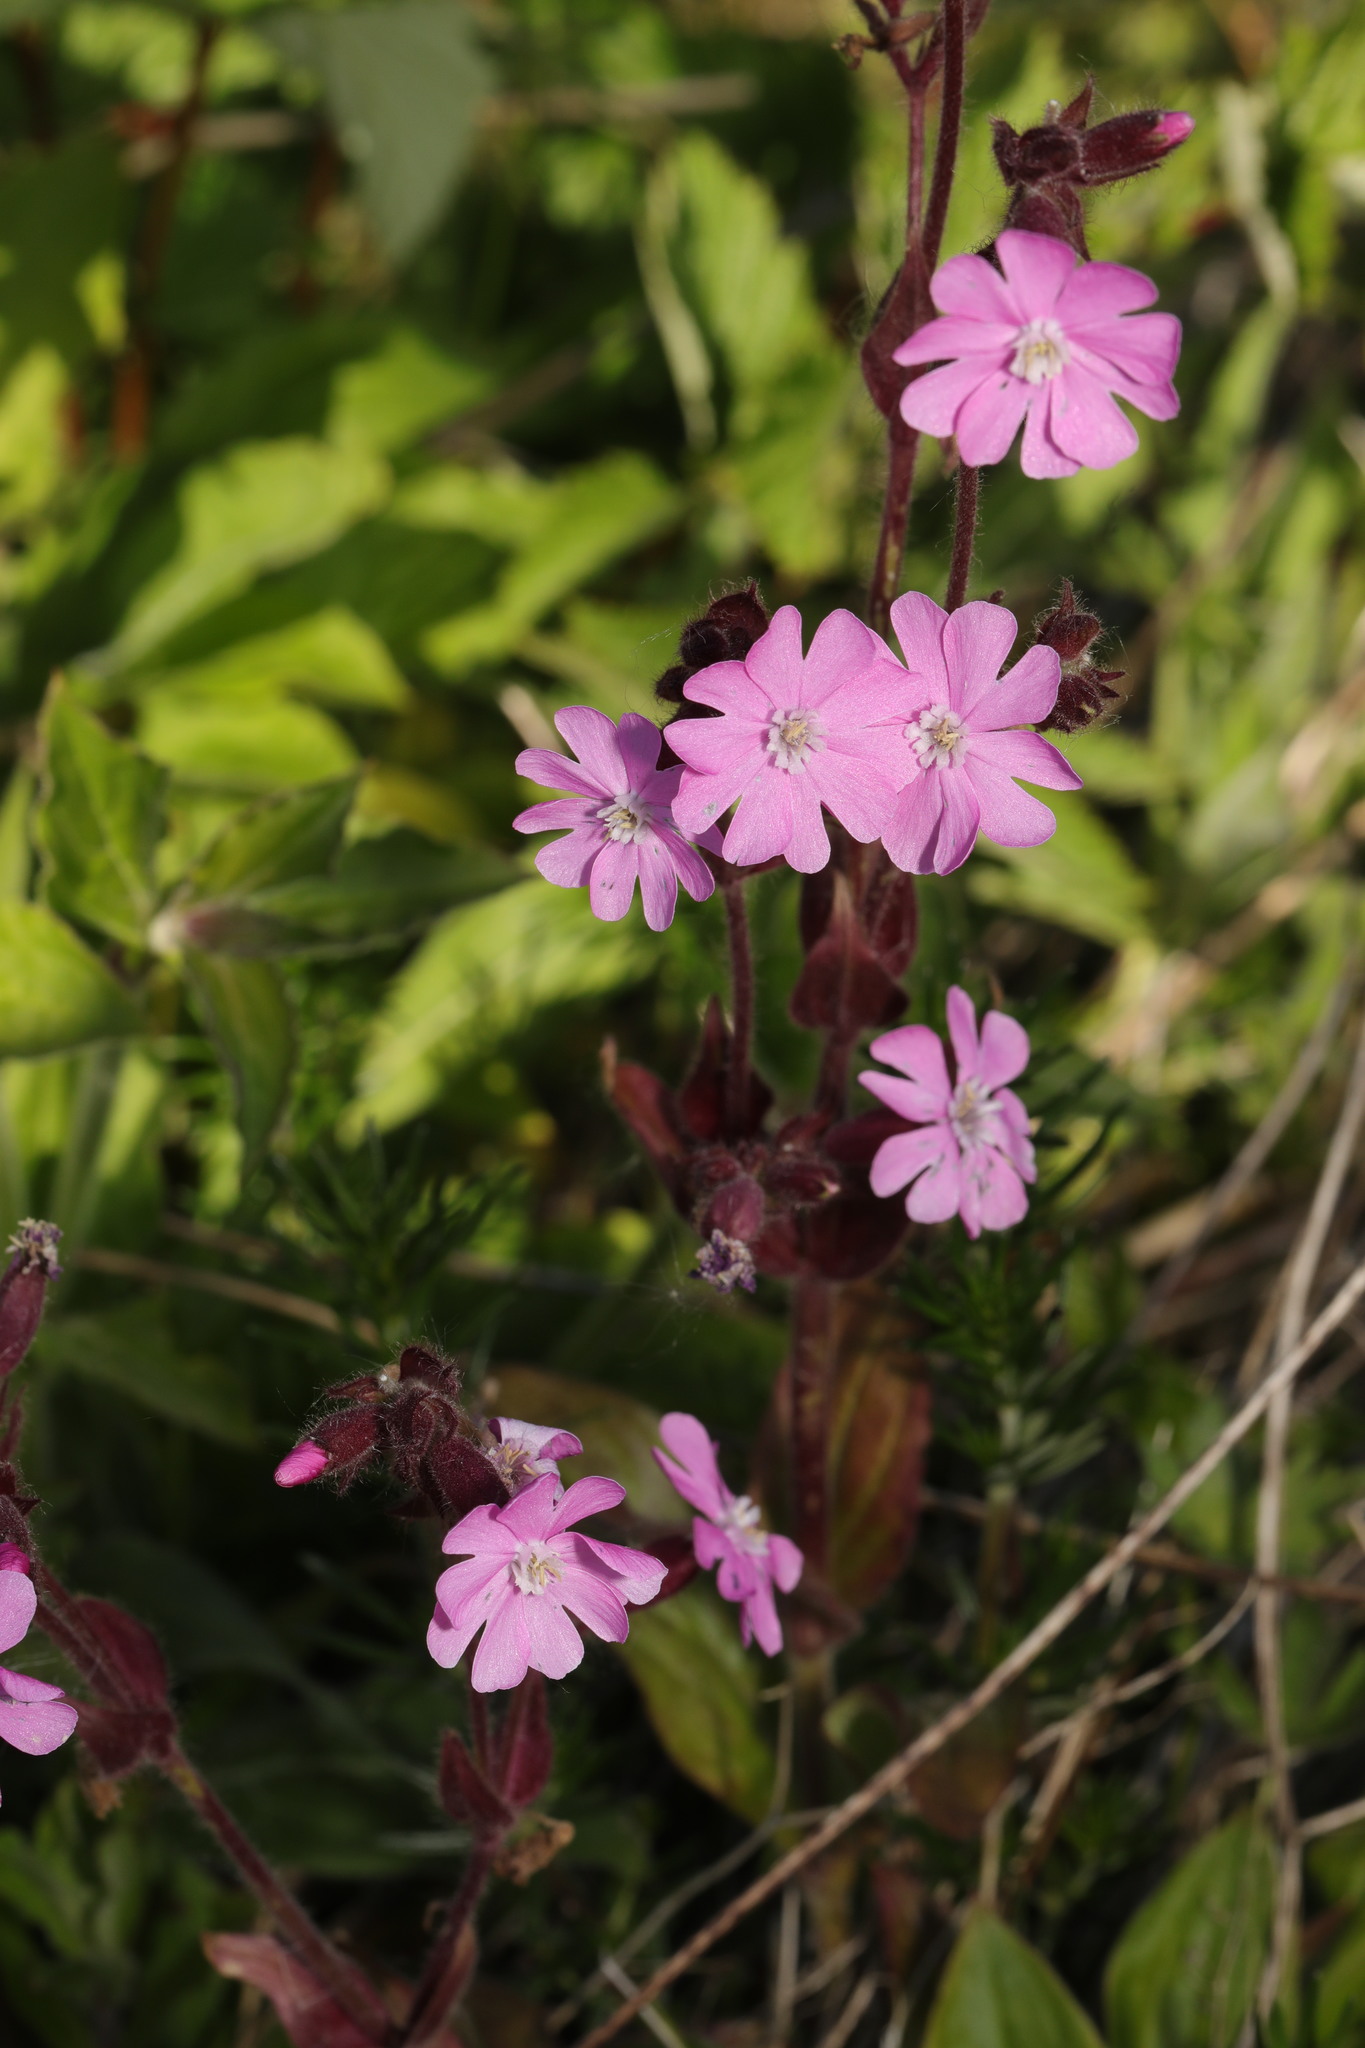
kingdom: Plantae
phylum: Tracheophyta
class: Magnoliopsida
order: Caryophyllales
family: Caryophyllaceae
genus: Silene
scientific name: Silene dioica
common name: Red campion
